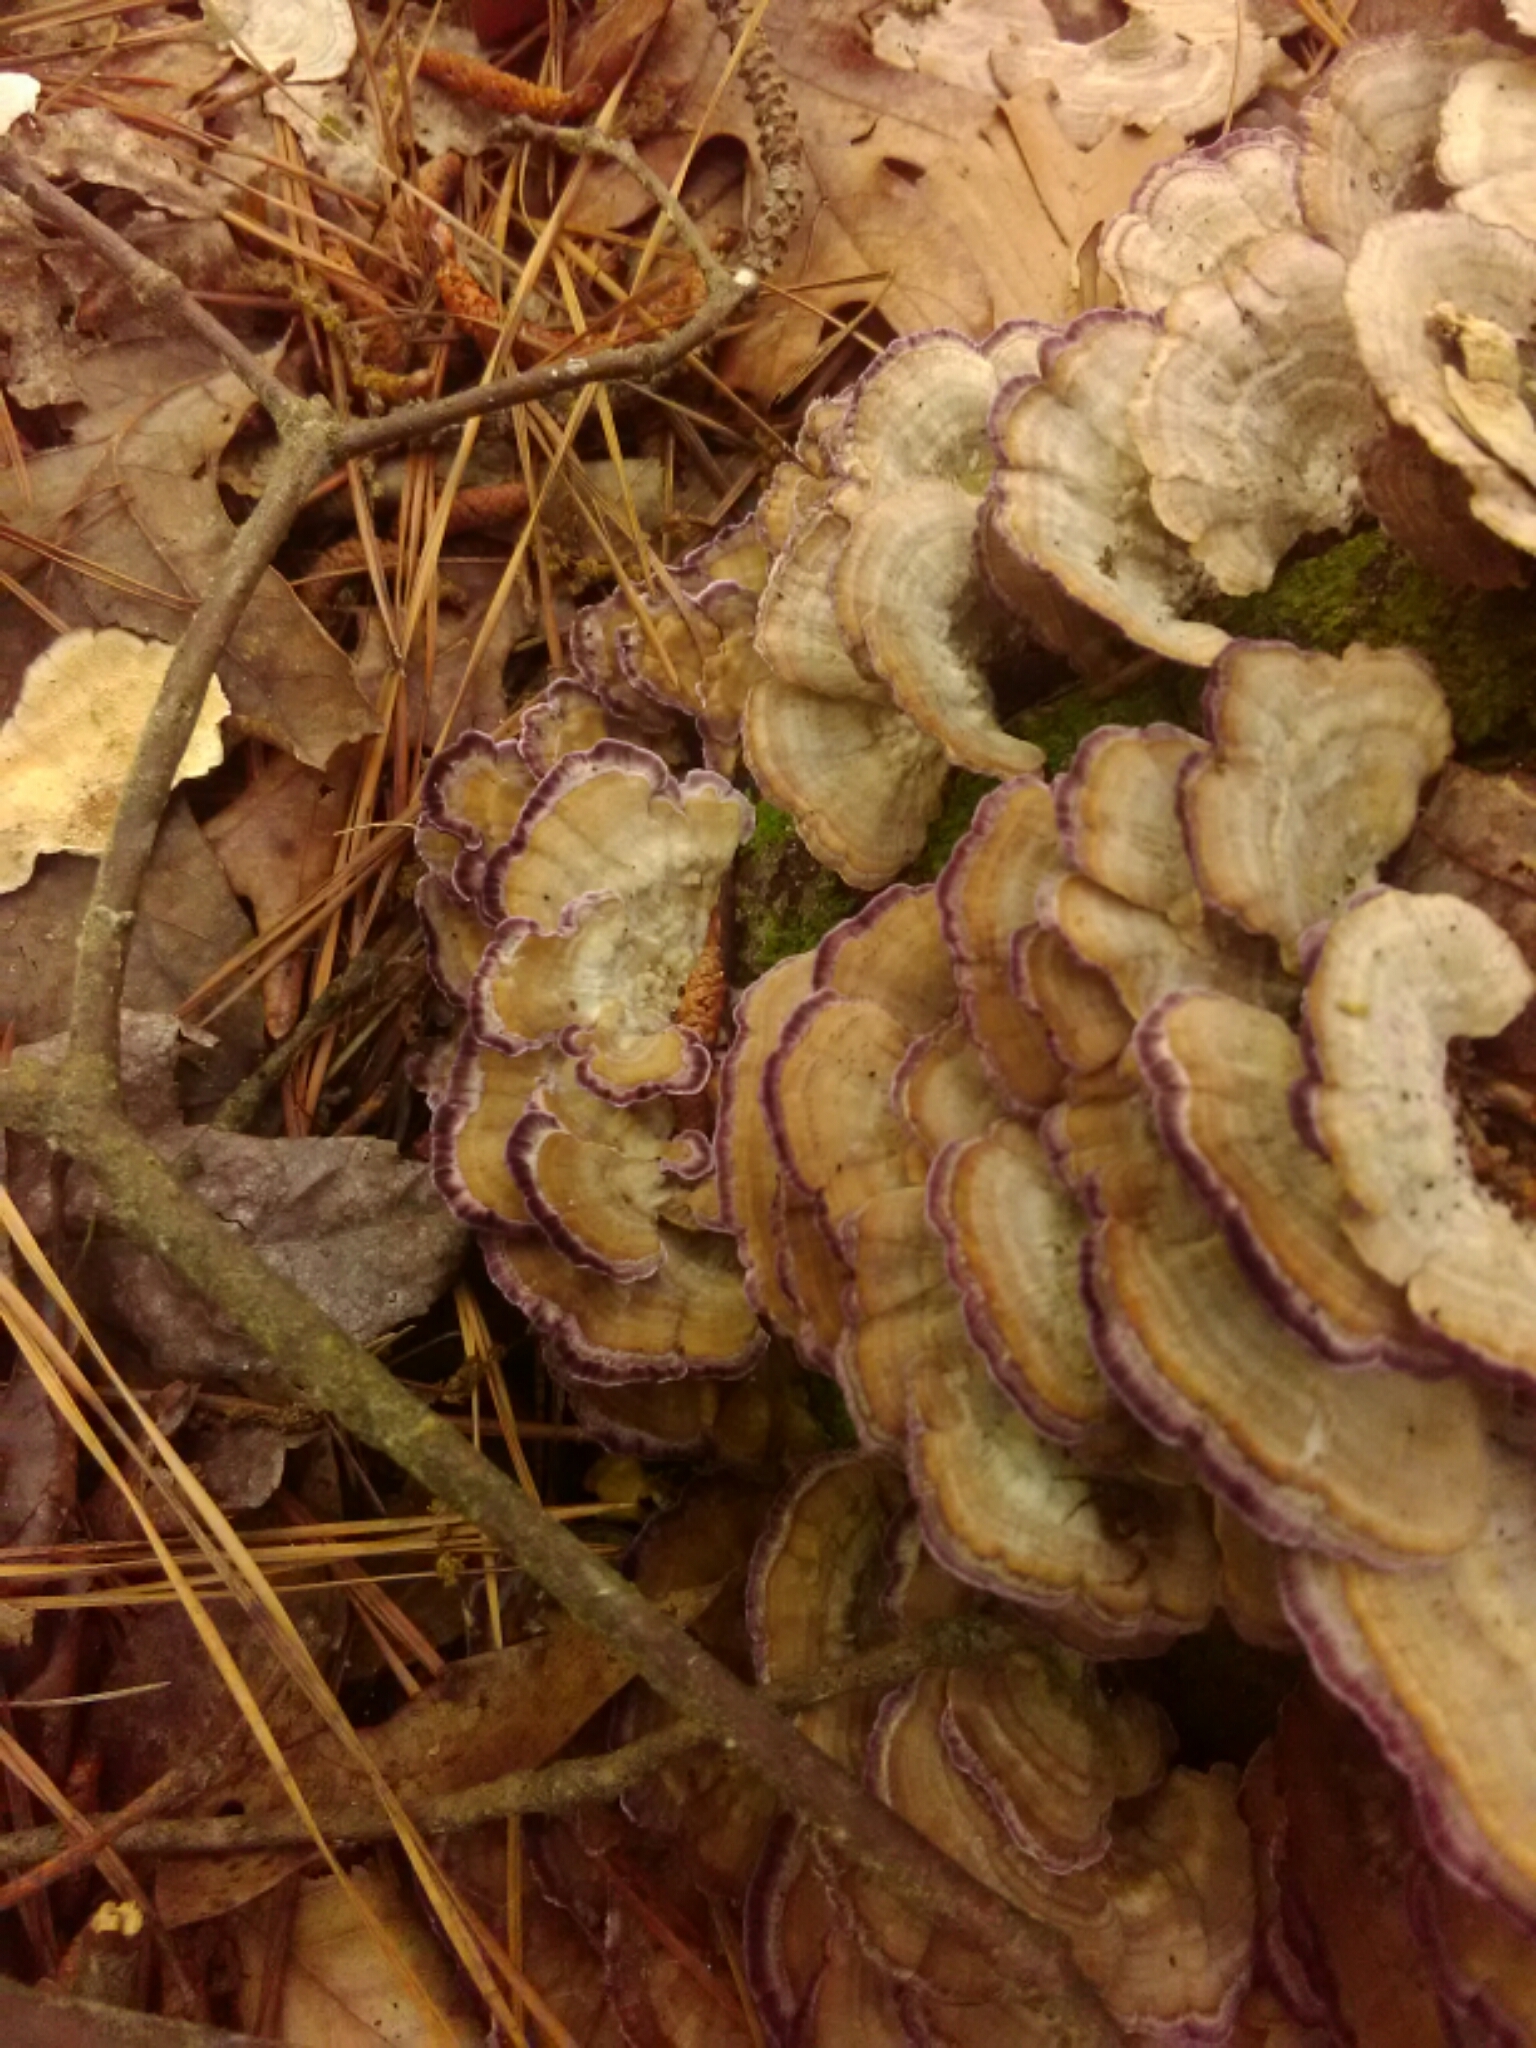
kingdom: Fungi
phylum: Basidiomycota
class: Agaricomycetes
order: Hymenochaetales
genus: Trichaptum
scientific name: Trichaptum biforme
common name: Violet-toothed polypore
